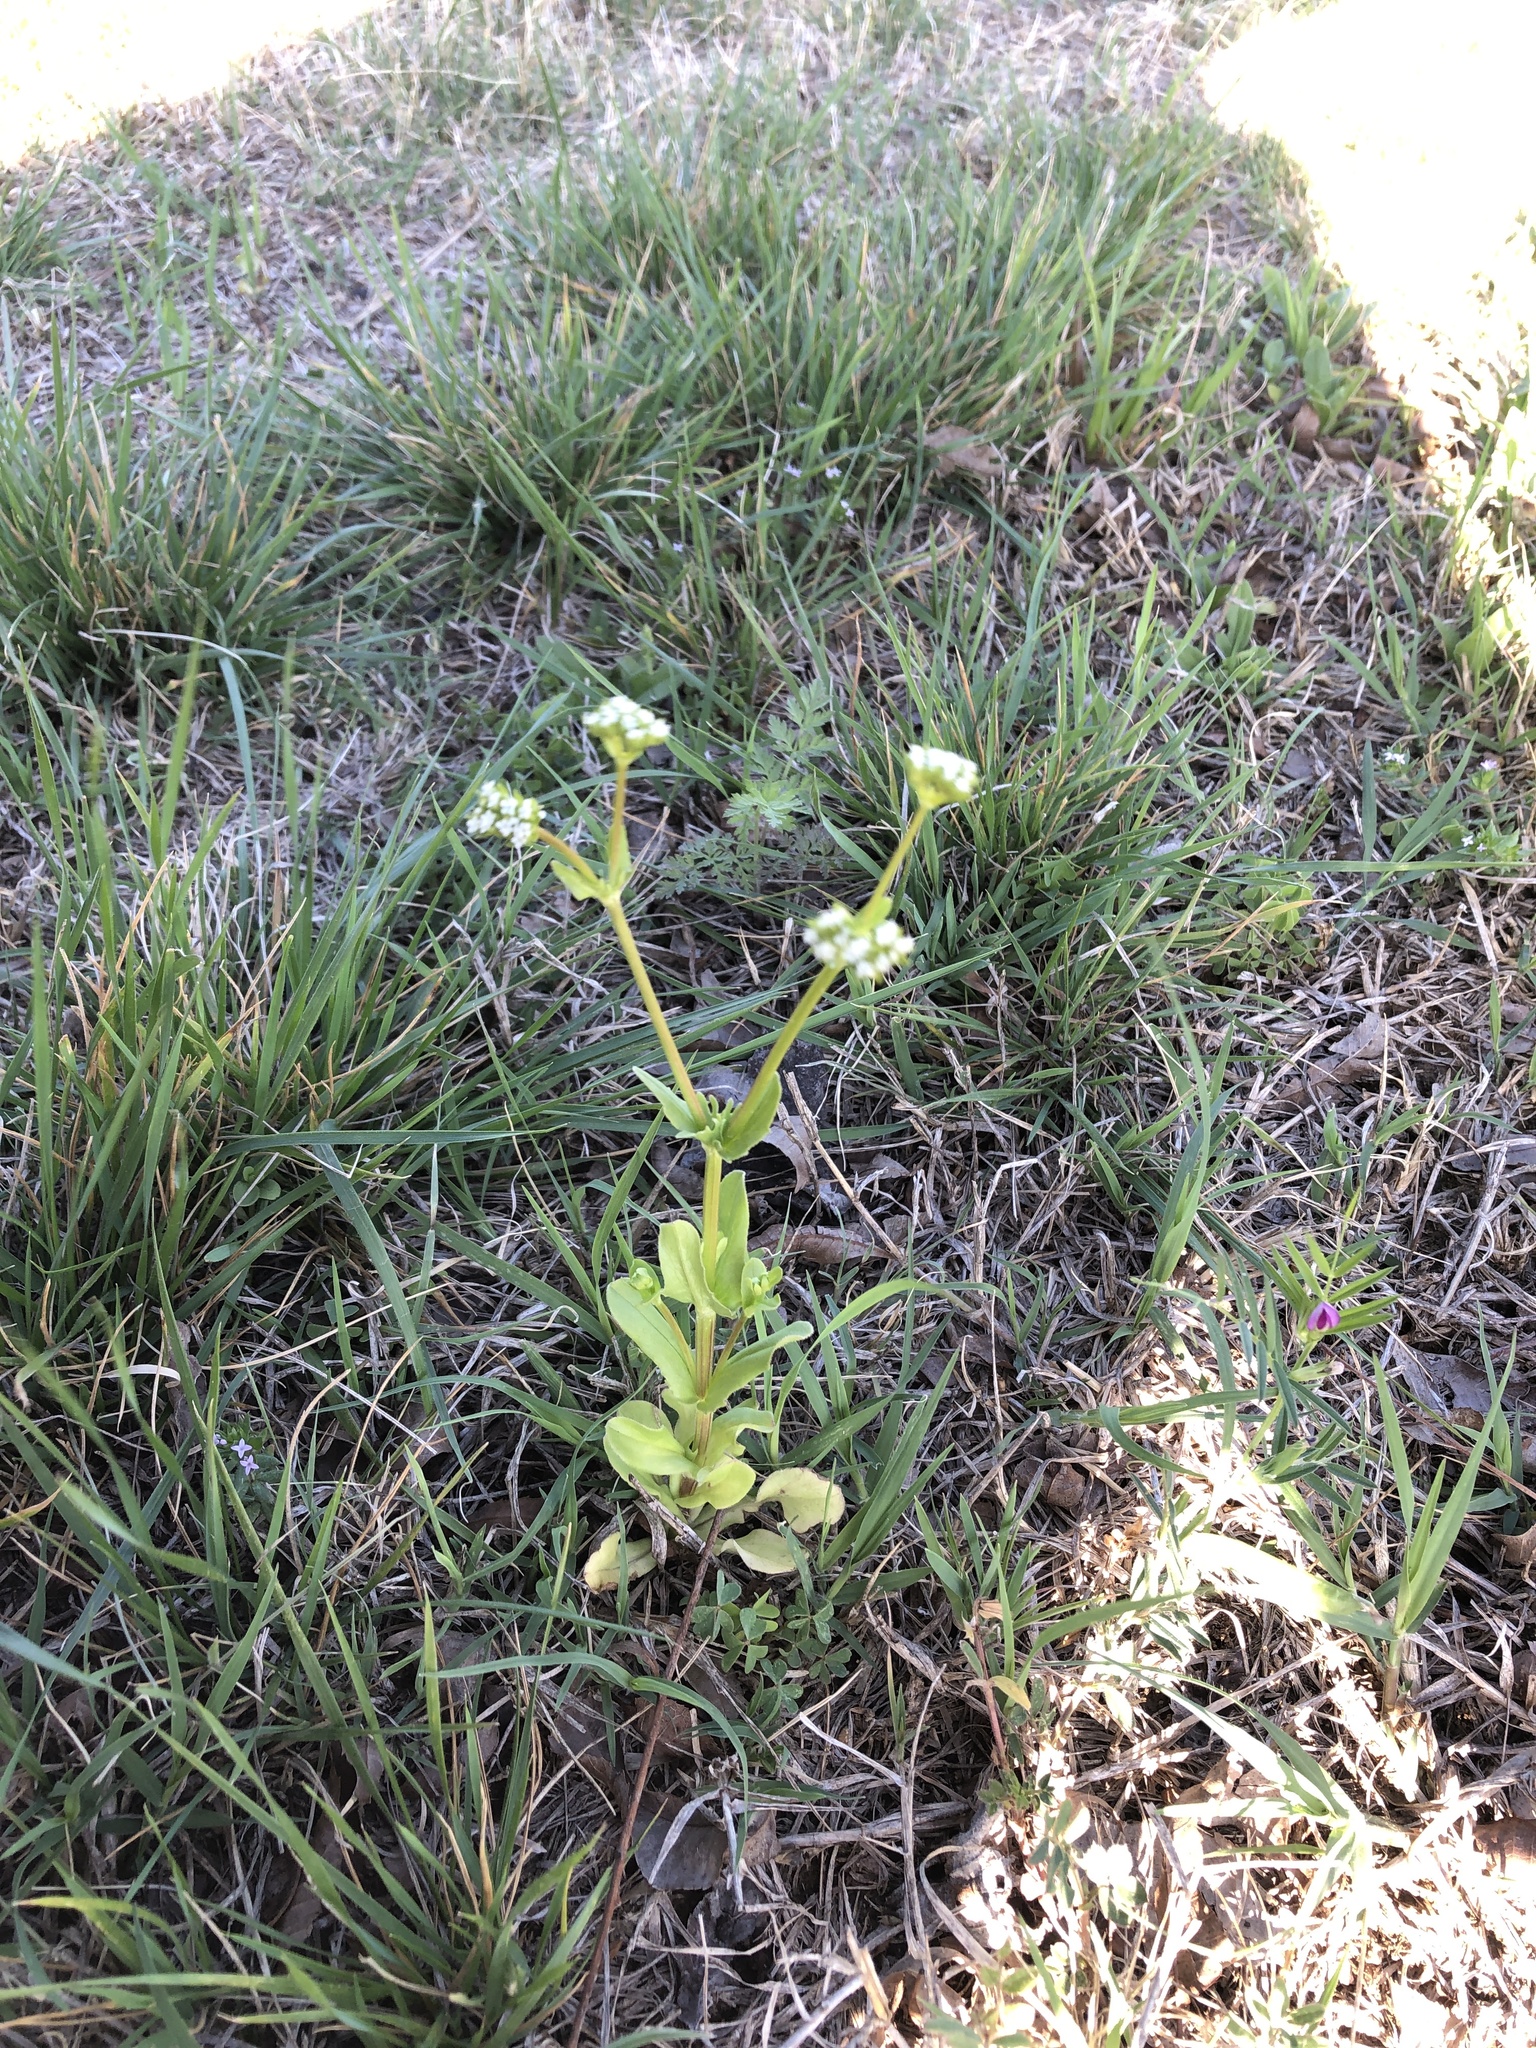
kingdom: Plantae
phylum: Tracheophyta
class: Magnoliopsida
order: Dipsacales
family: Caprifoliaceae
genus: Valerianella
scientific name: Valerianella radiata
